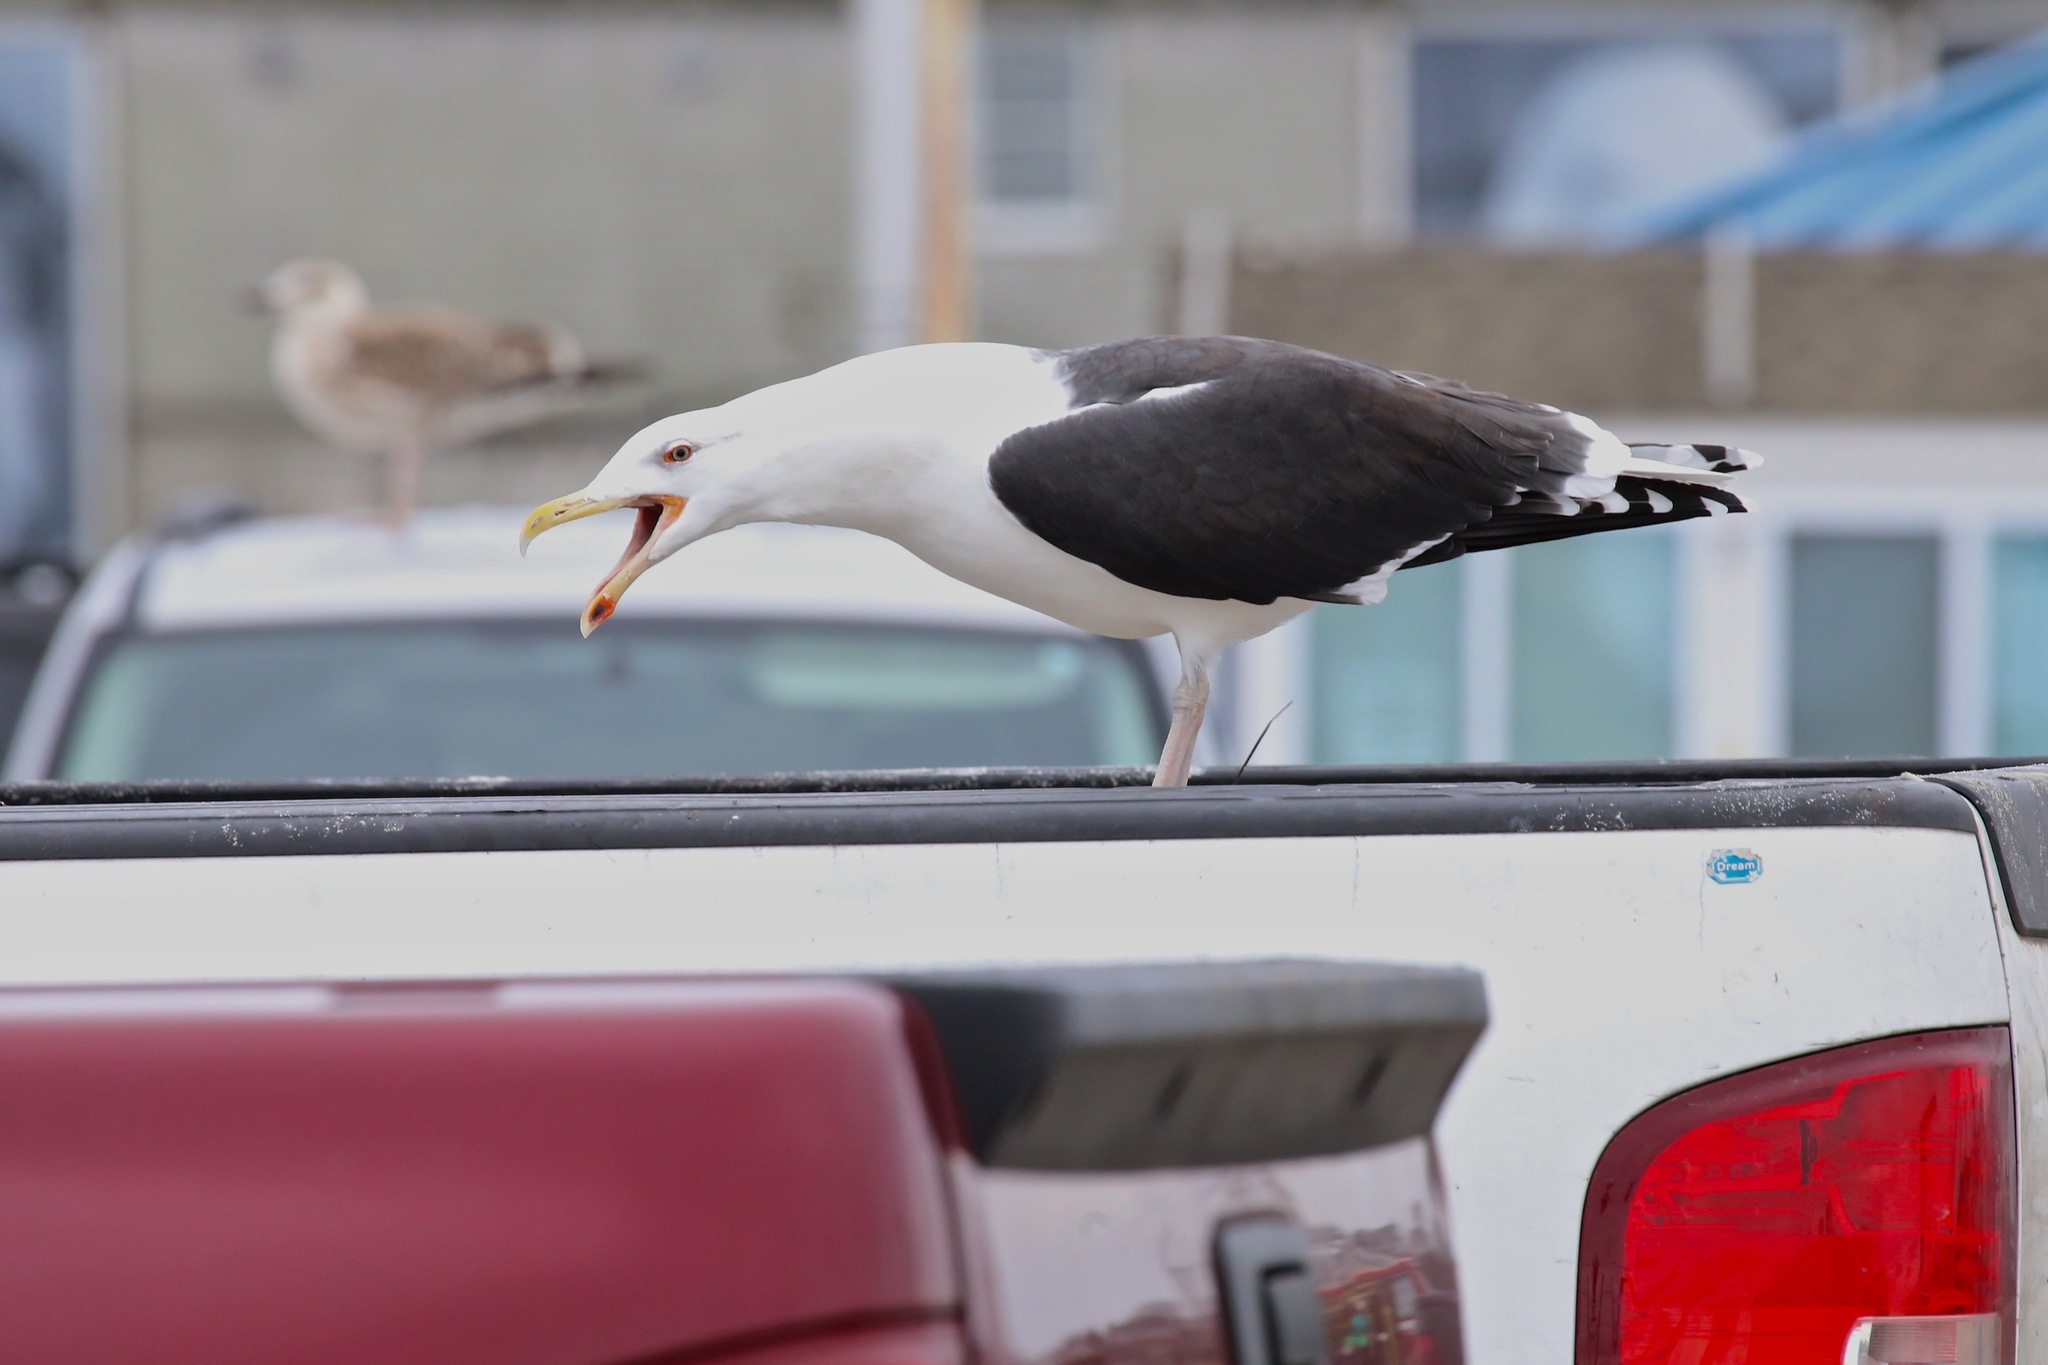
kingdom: Animalia
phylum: Chordata
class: Aves
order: Charadriiformes
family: Laridae
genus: Larus
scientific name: Larus marinus
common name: Great black-backed gull
